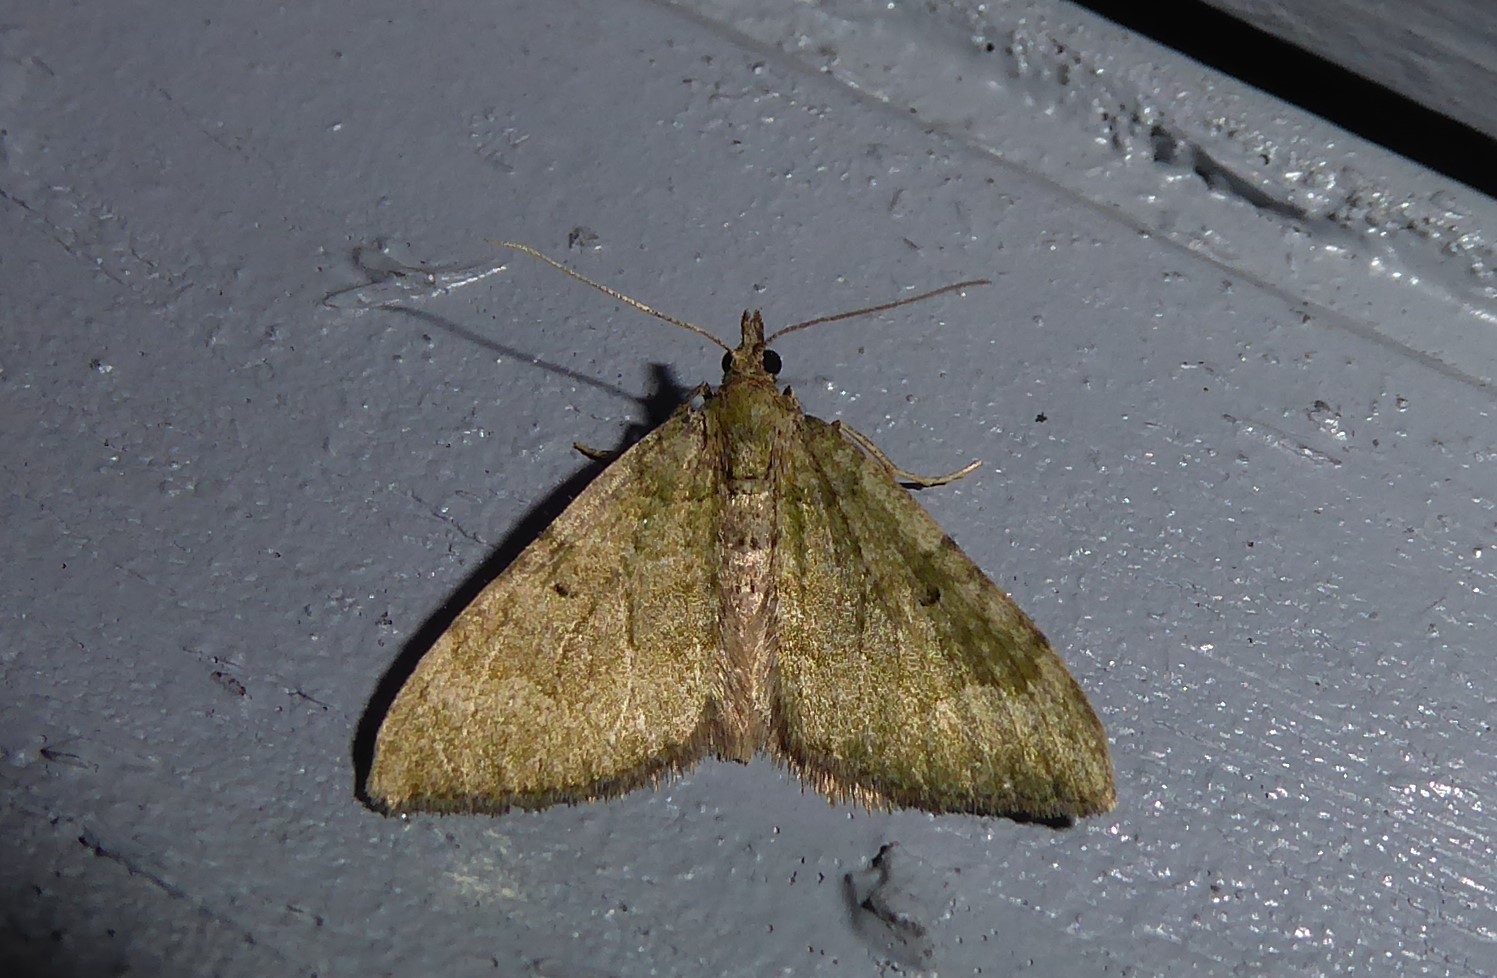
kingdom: Animalia
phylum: Arthropoda
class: Insecta
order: Lepidoptera
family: Geometridae
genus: Epyaxa
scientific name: Epyaxa rosearia
